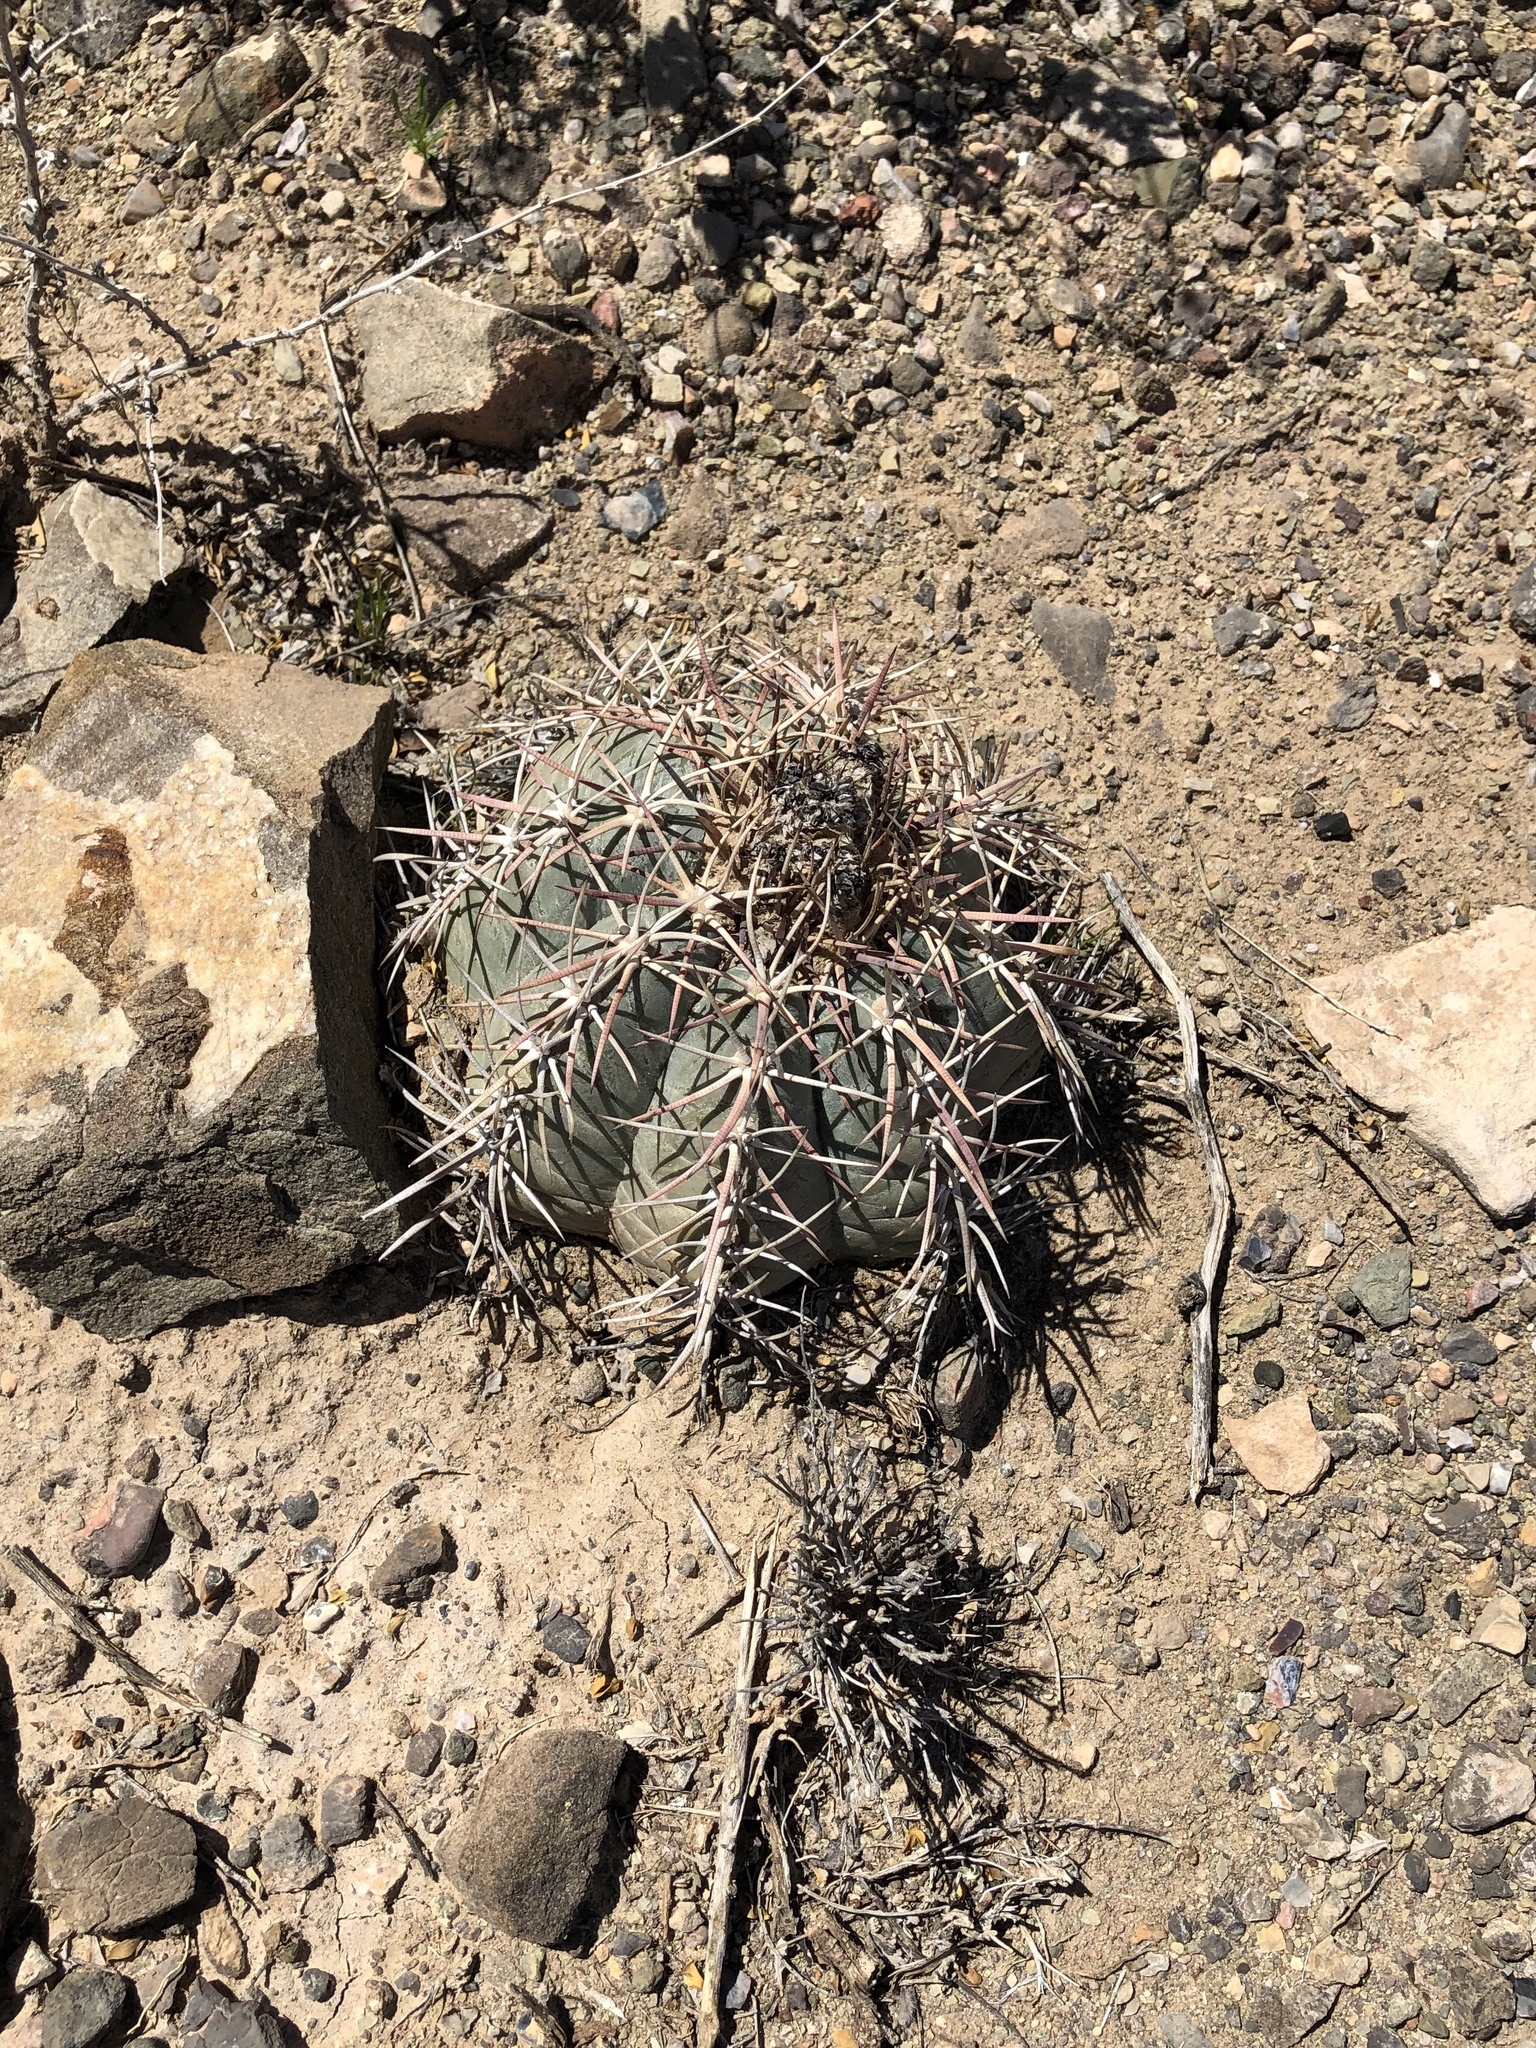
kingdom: Plantae
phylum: Tracheophyta
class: Magnoliopsida
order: Caryophyllales
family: Cactaceae
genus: Echinocactus
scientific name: Echinocactus horizonthalonius
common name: Devilshead
